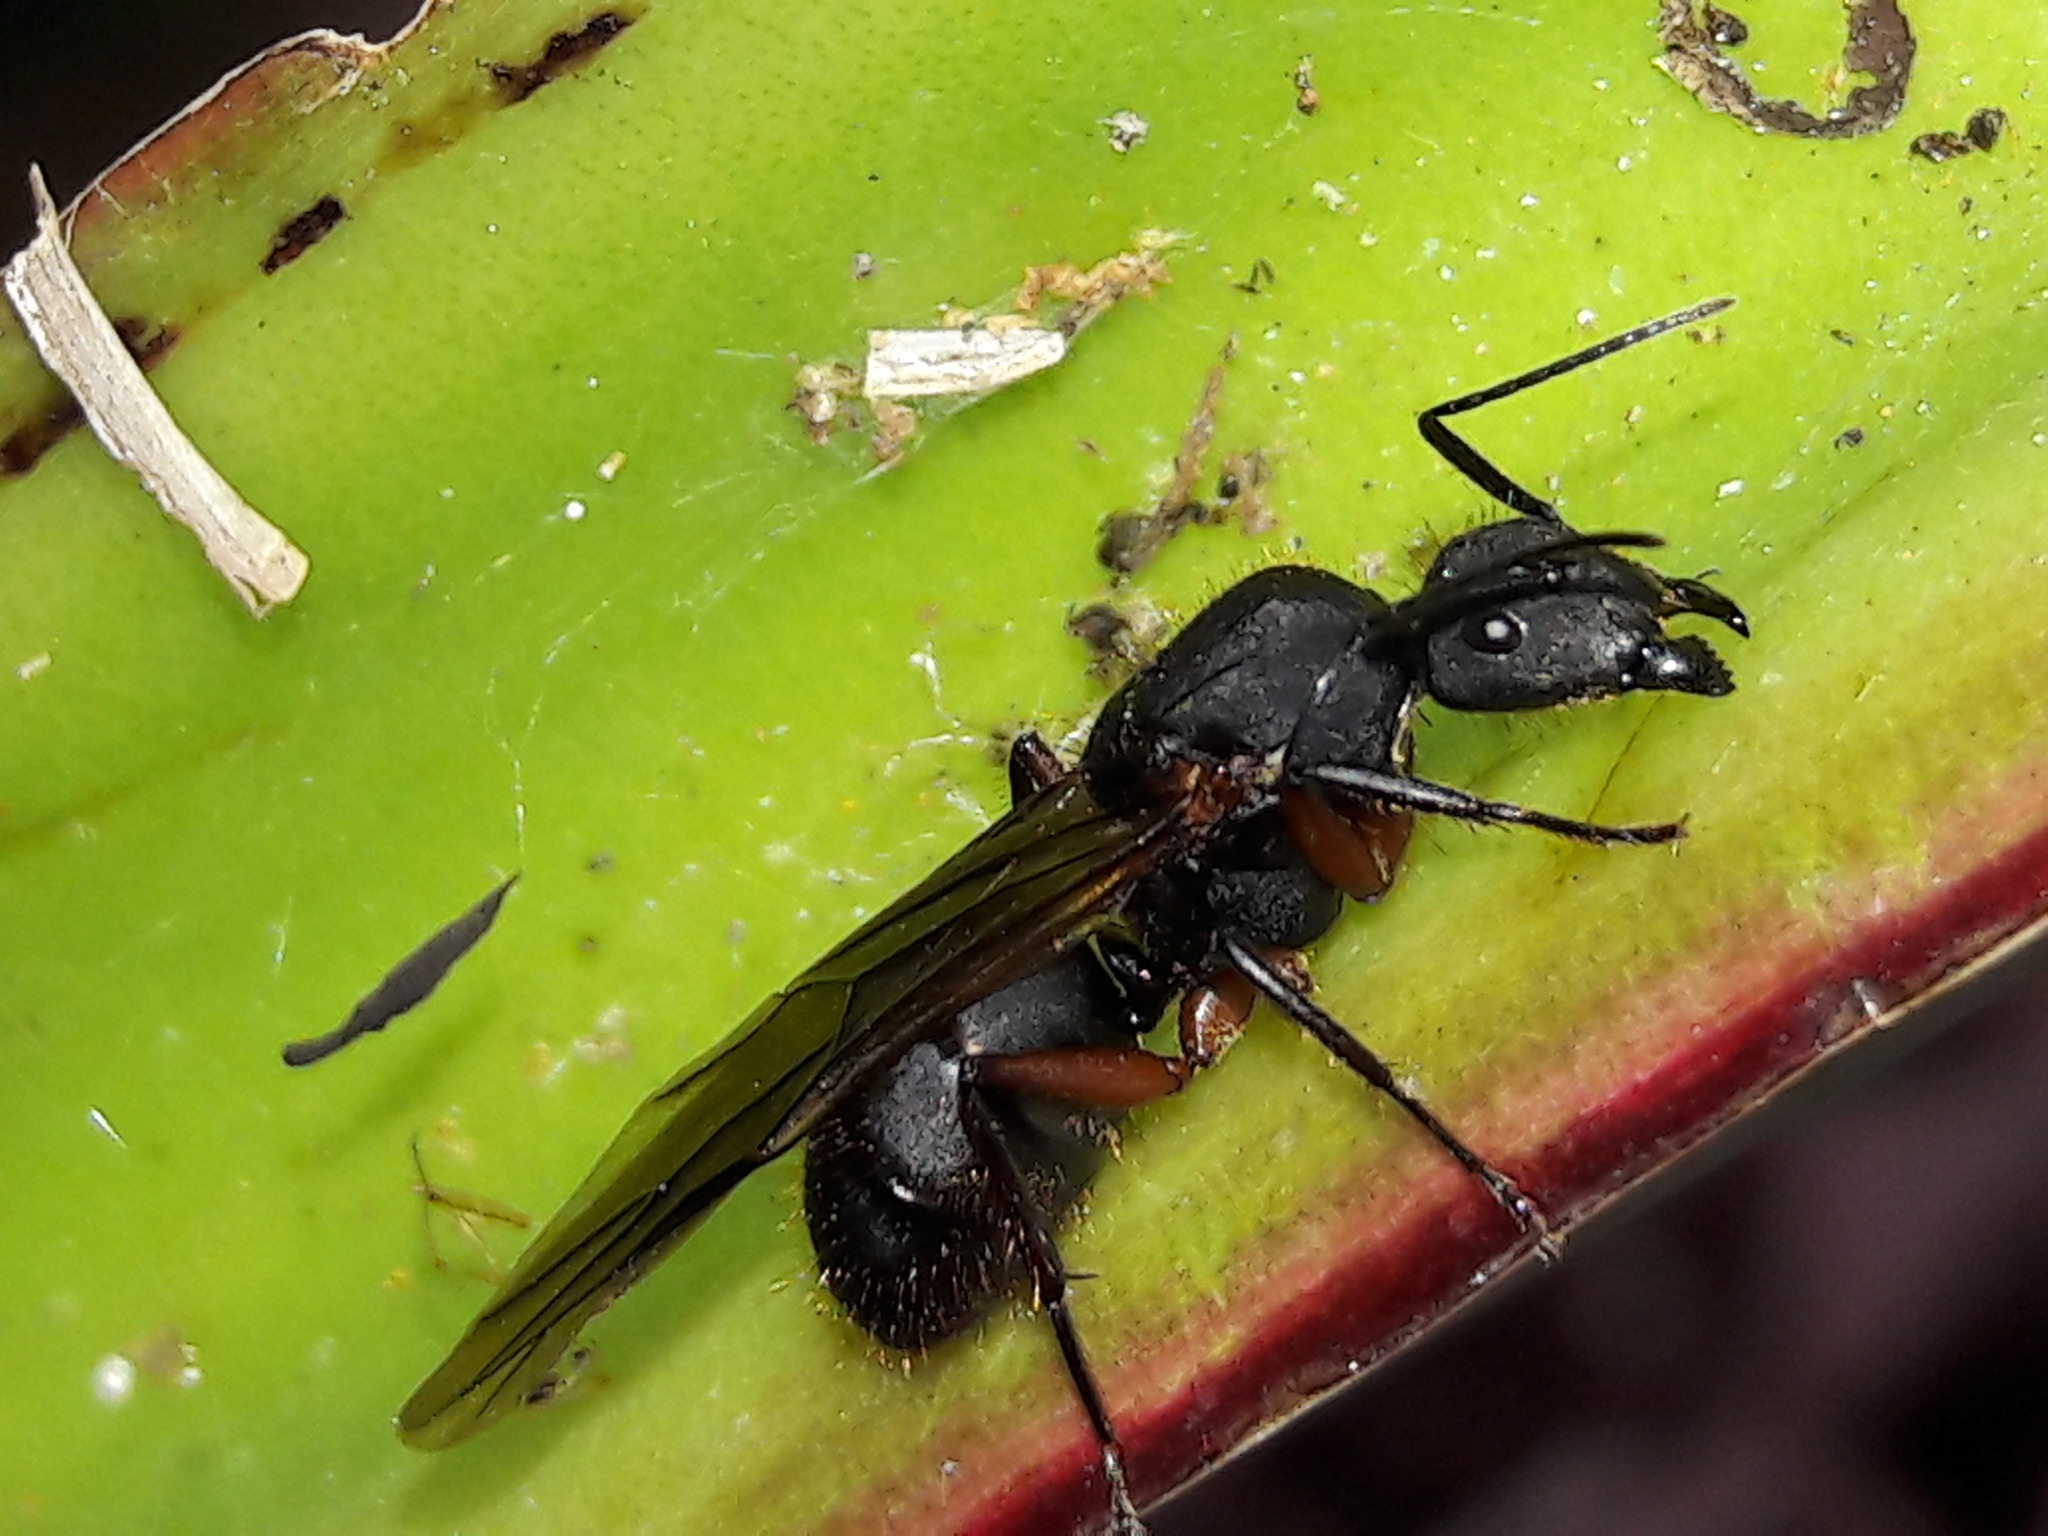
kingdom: Animalia
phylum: Arthropoda
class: Insecta
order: Hymenoptera
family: Formicidae
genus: Camponotus
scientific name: Camponotus rufipes
